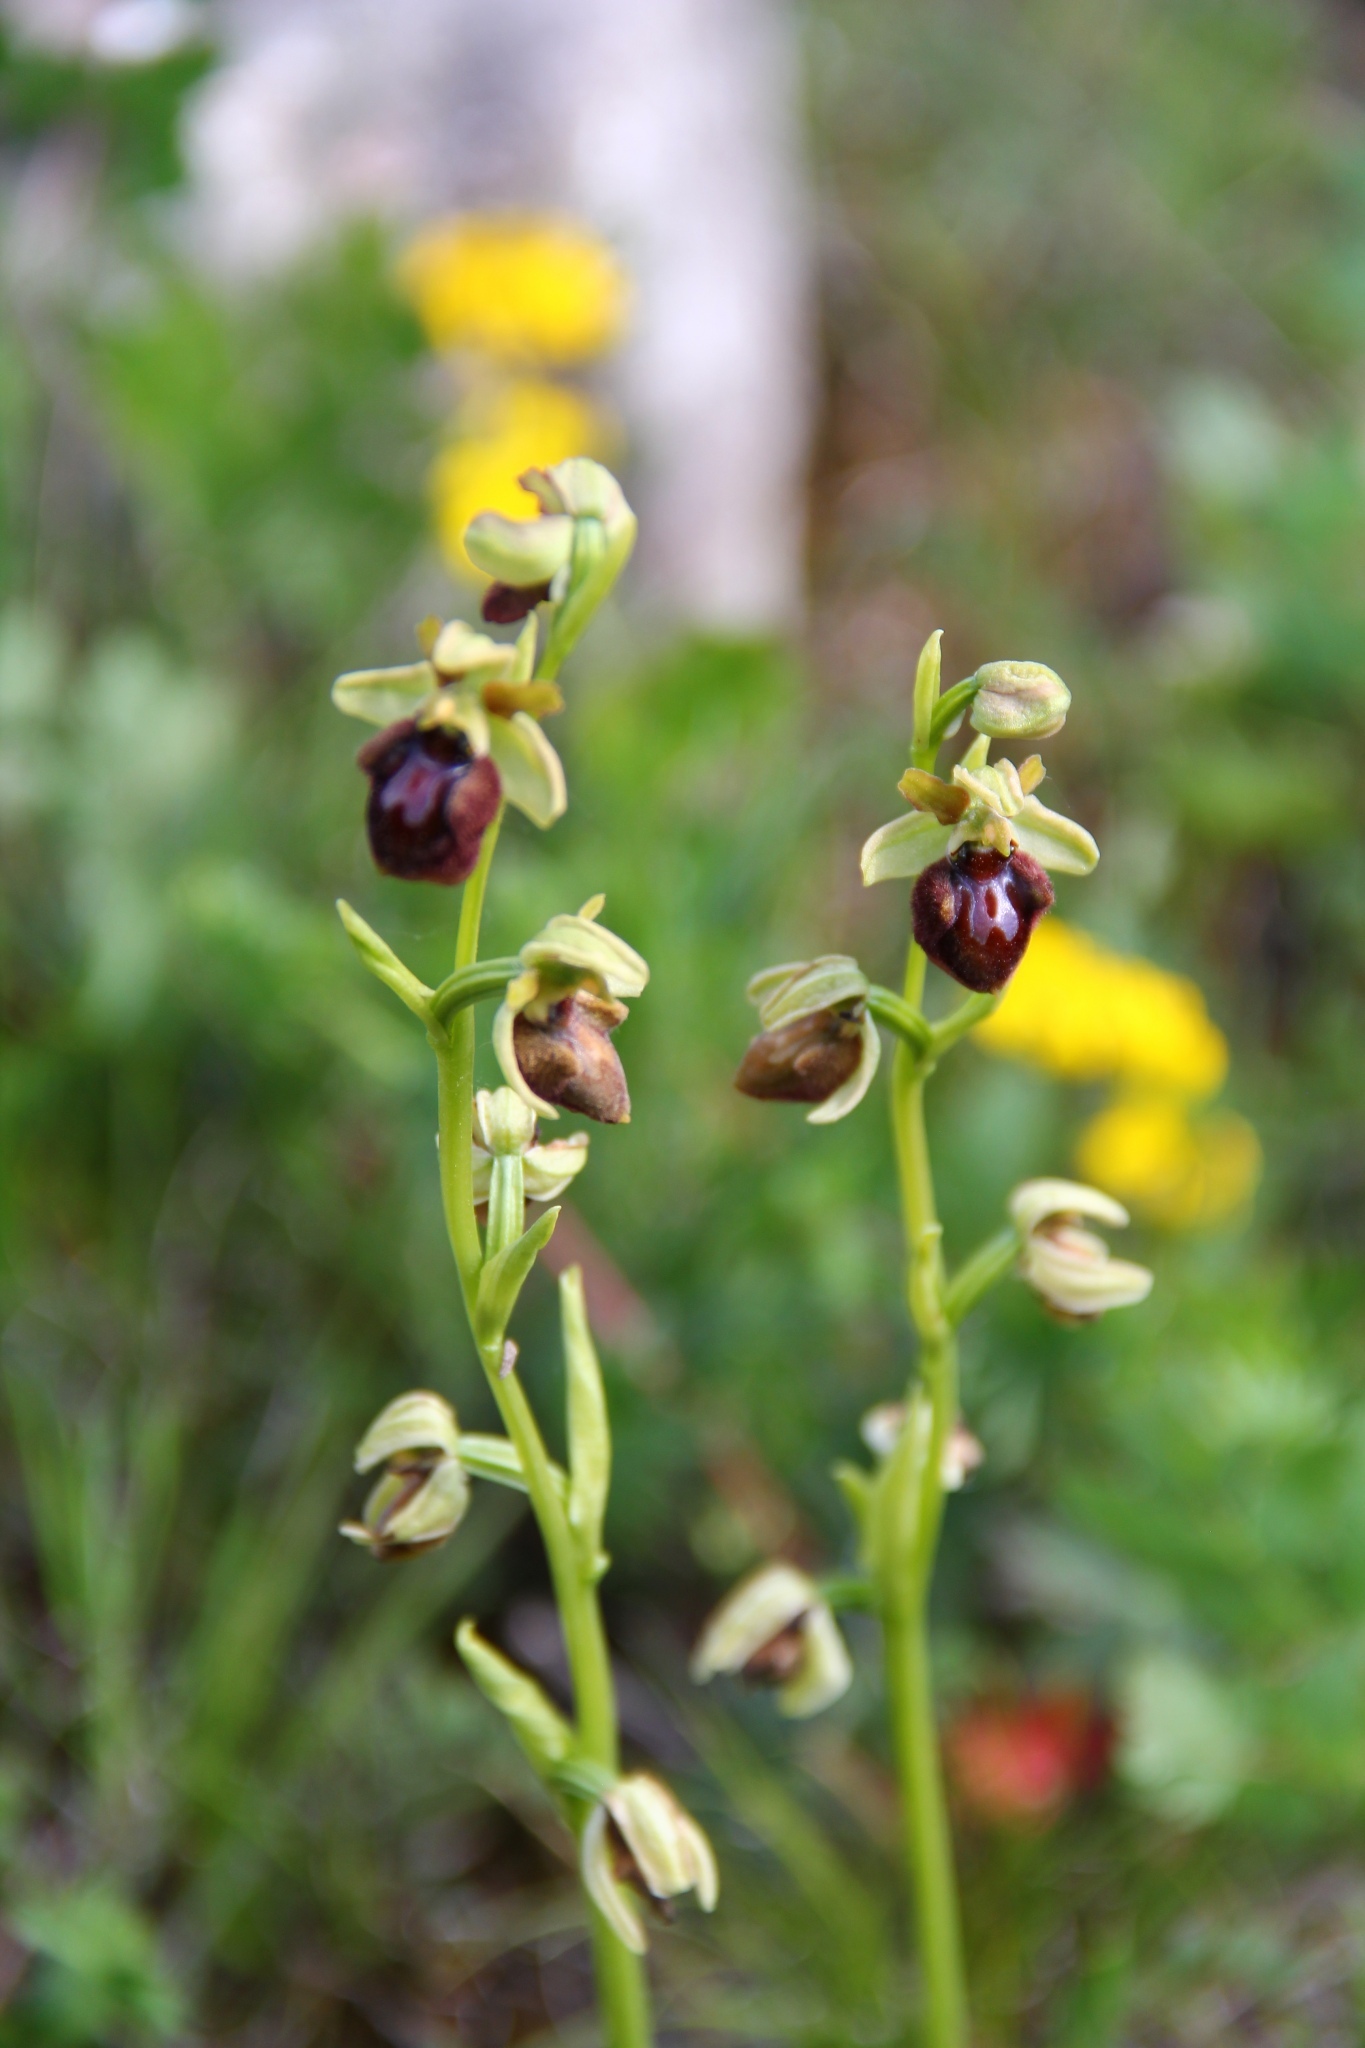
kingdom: Plantae
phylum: Tracheophyta
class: Liliopsida
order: Asparagales
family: Orchidaceae
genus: Ophrys
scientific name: Ophrys sphegodes
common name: Early spider-orchid
